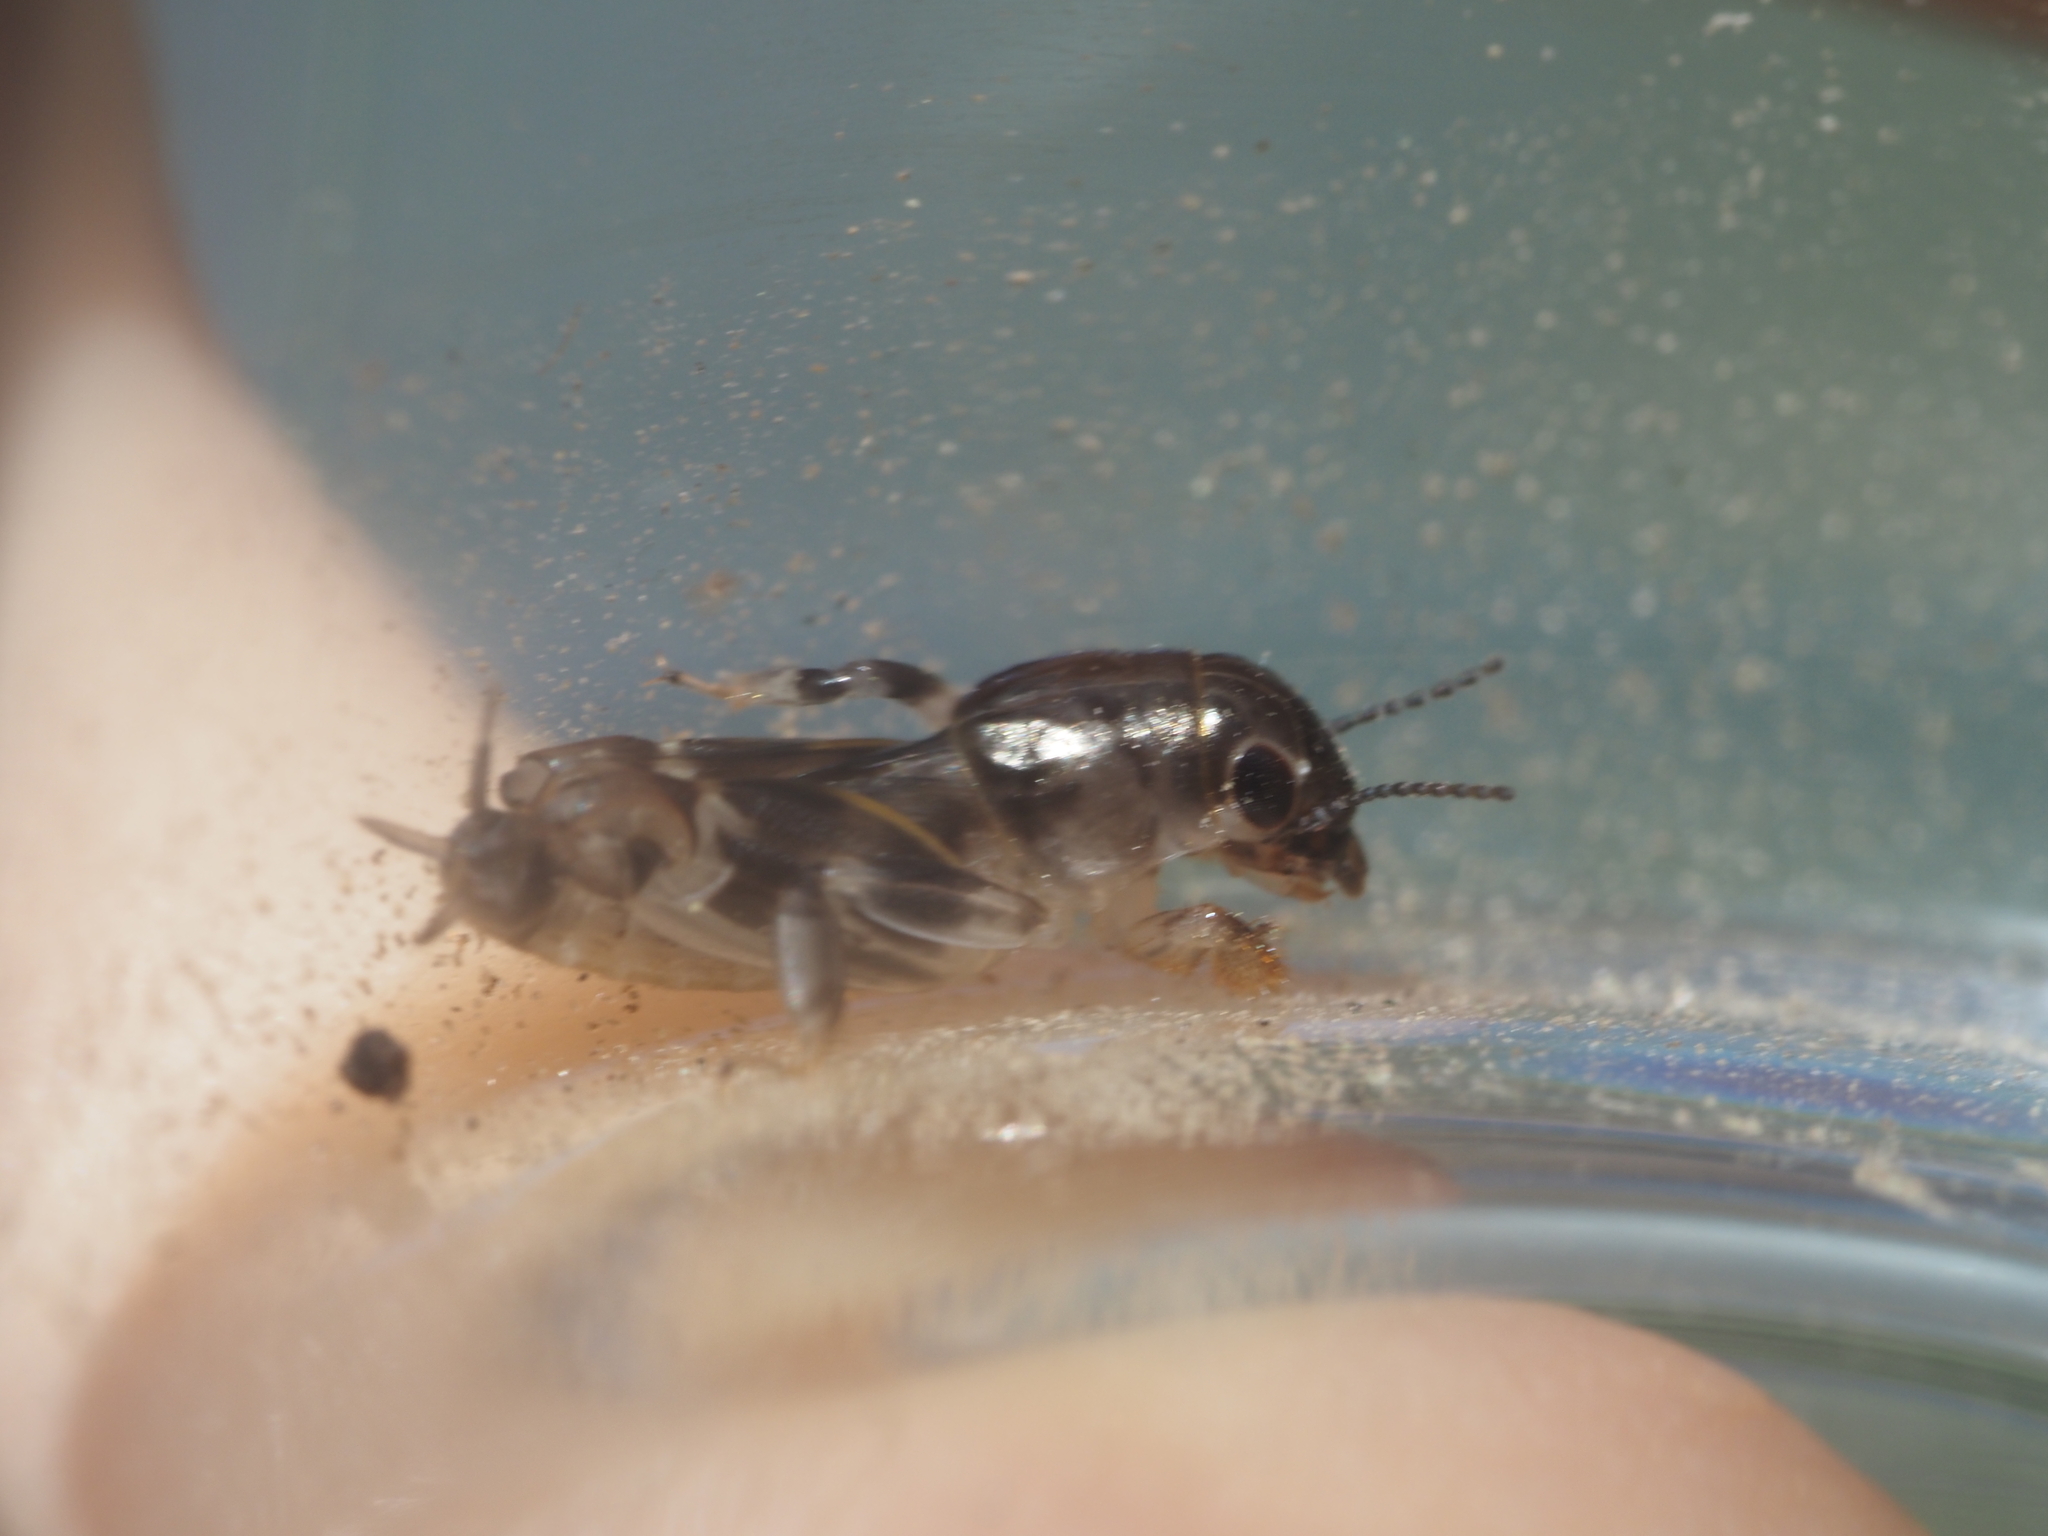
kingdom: Animalia
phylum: Arthropoda
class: Insecta
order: Orthoptera
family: Tridactylidae
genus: Neotridactylus
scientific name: Neotridactylus apicialis
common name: Larger pygmy locust
